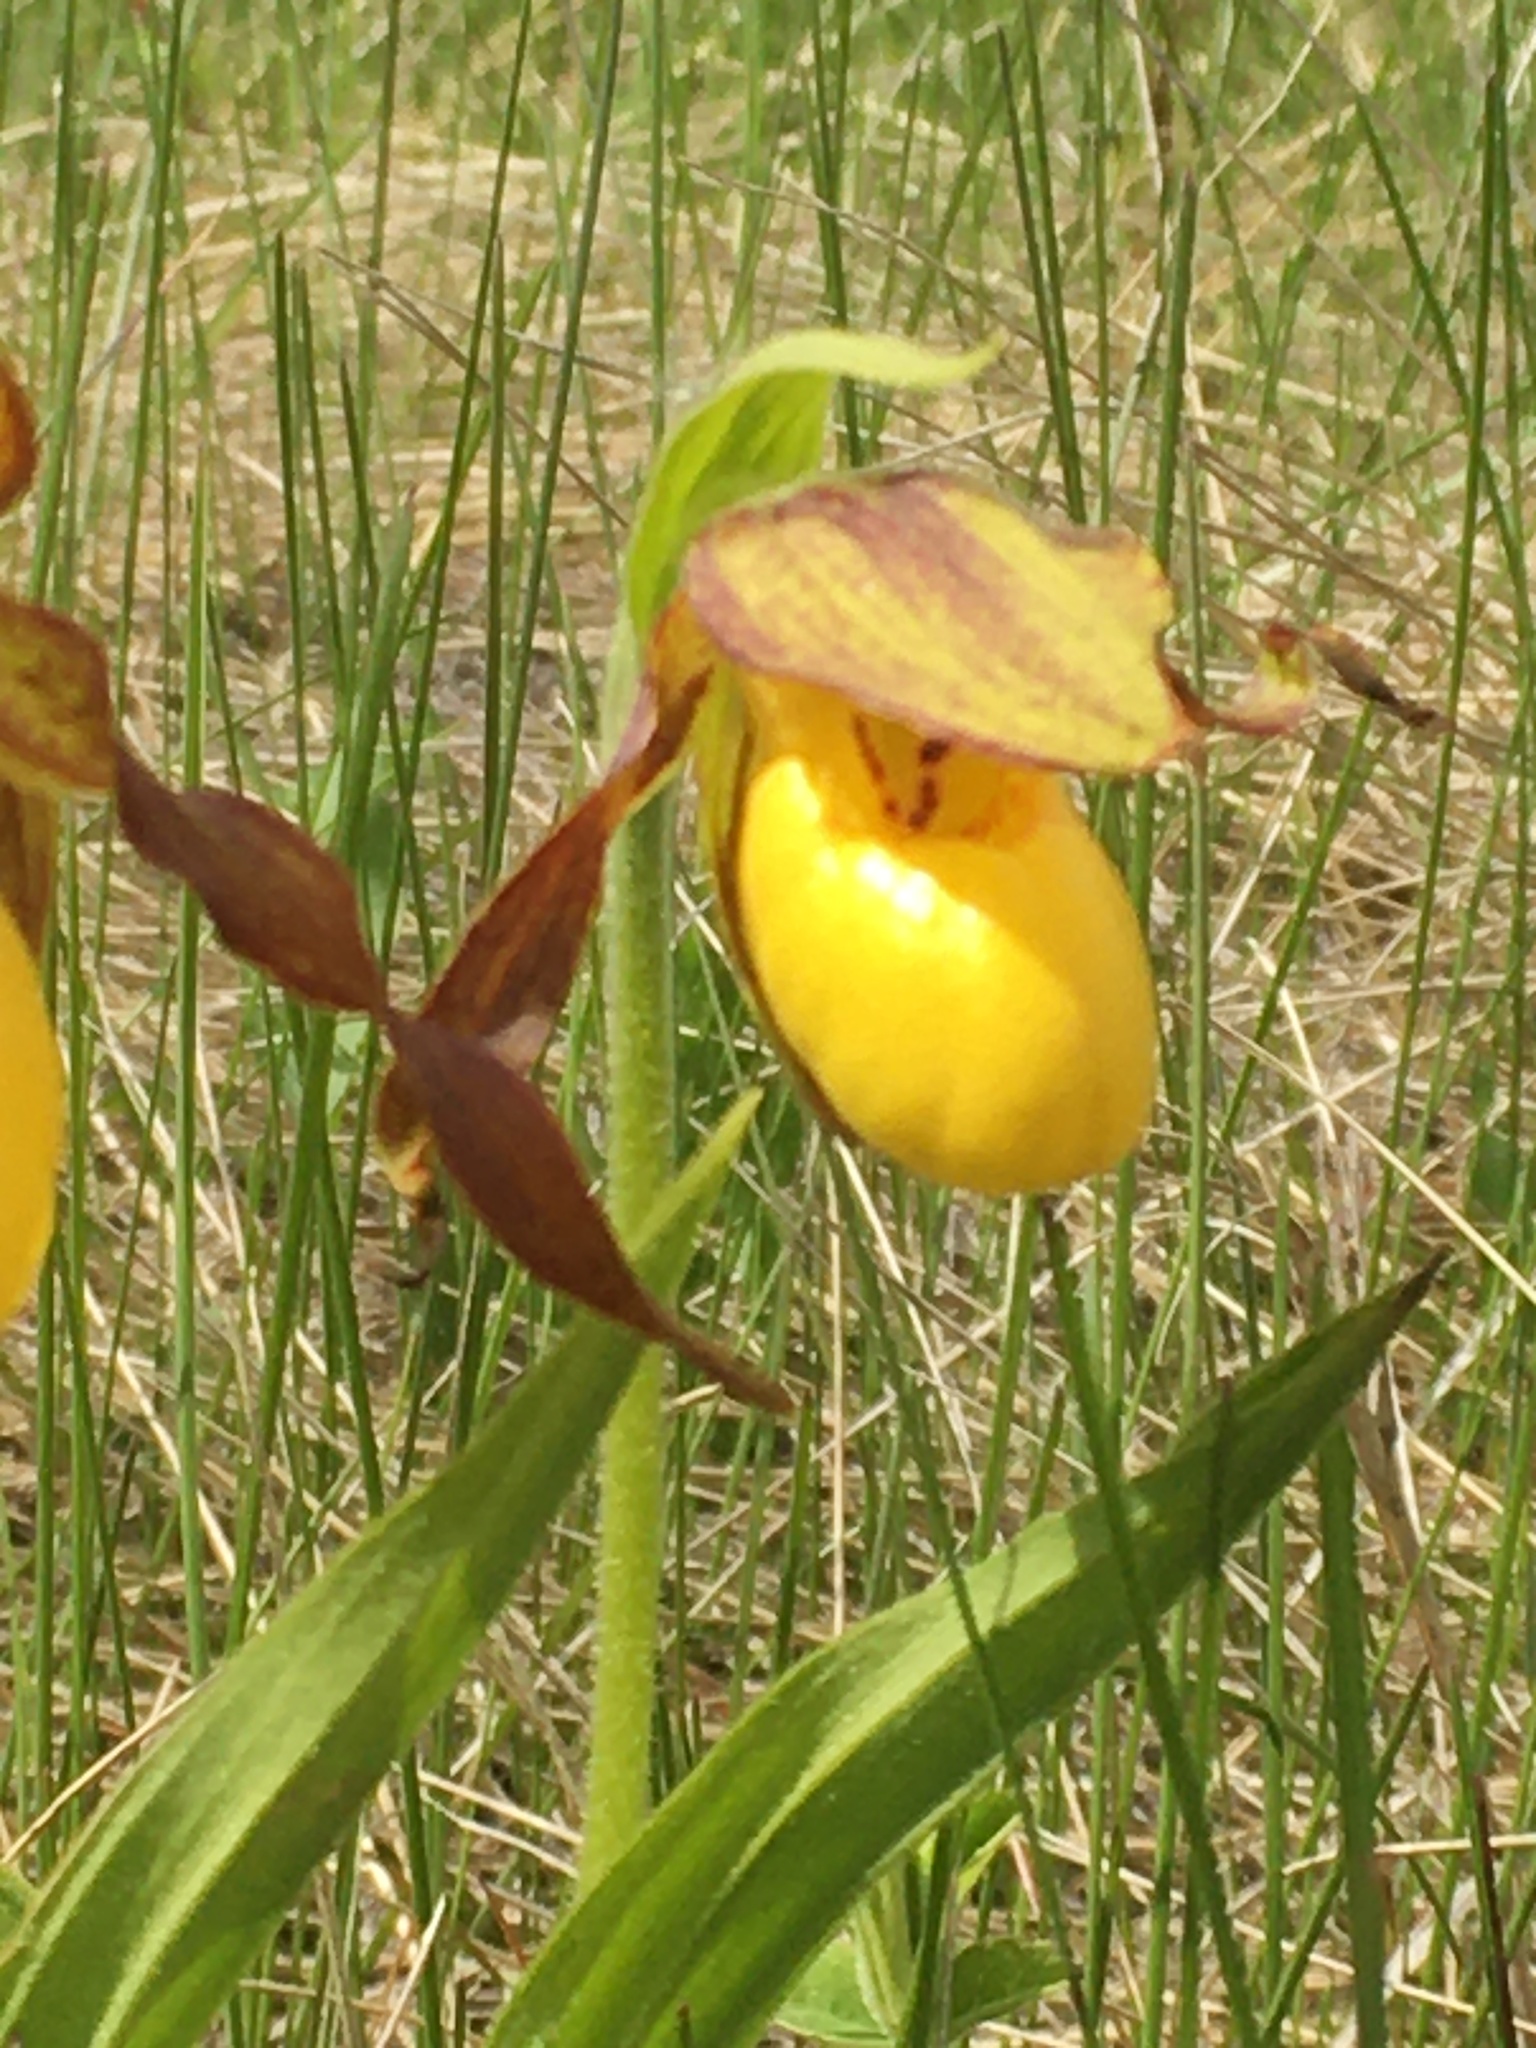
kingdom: Plantae
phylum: Tracheophyta
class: Liliopsida
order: Asparagales
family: Orchidaceae
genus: Cypripedium
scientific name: Cypripedium parviflorum
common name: American yellow lady's-slipper
